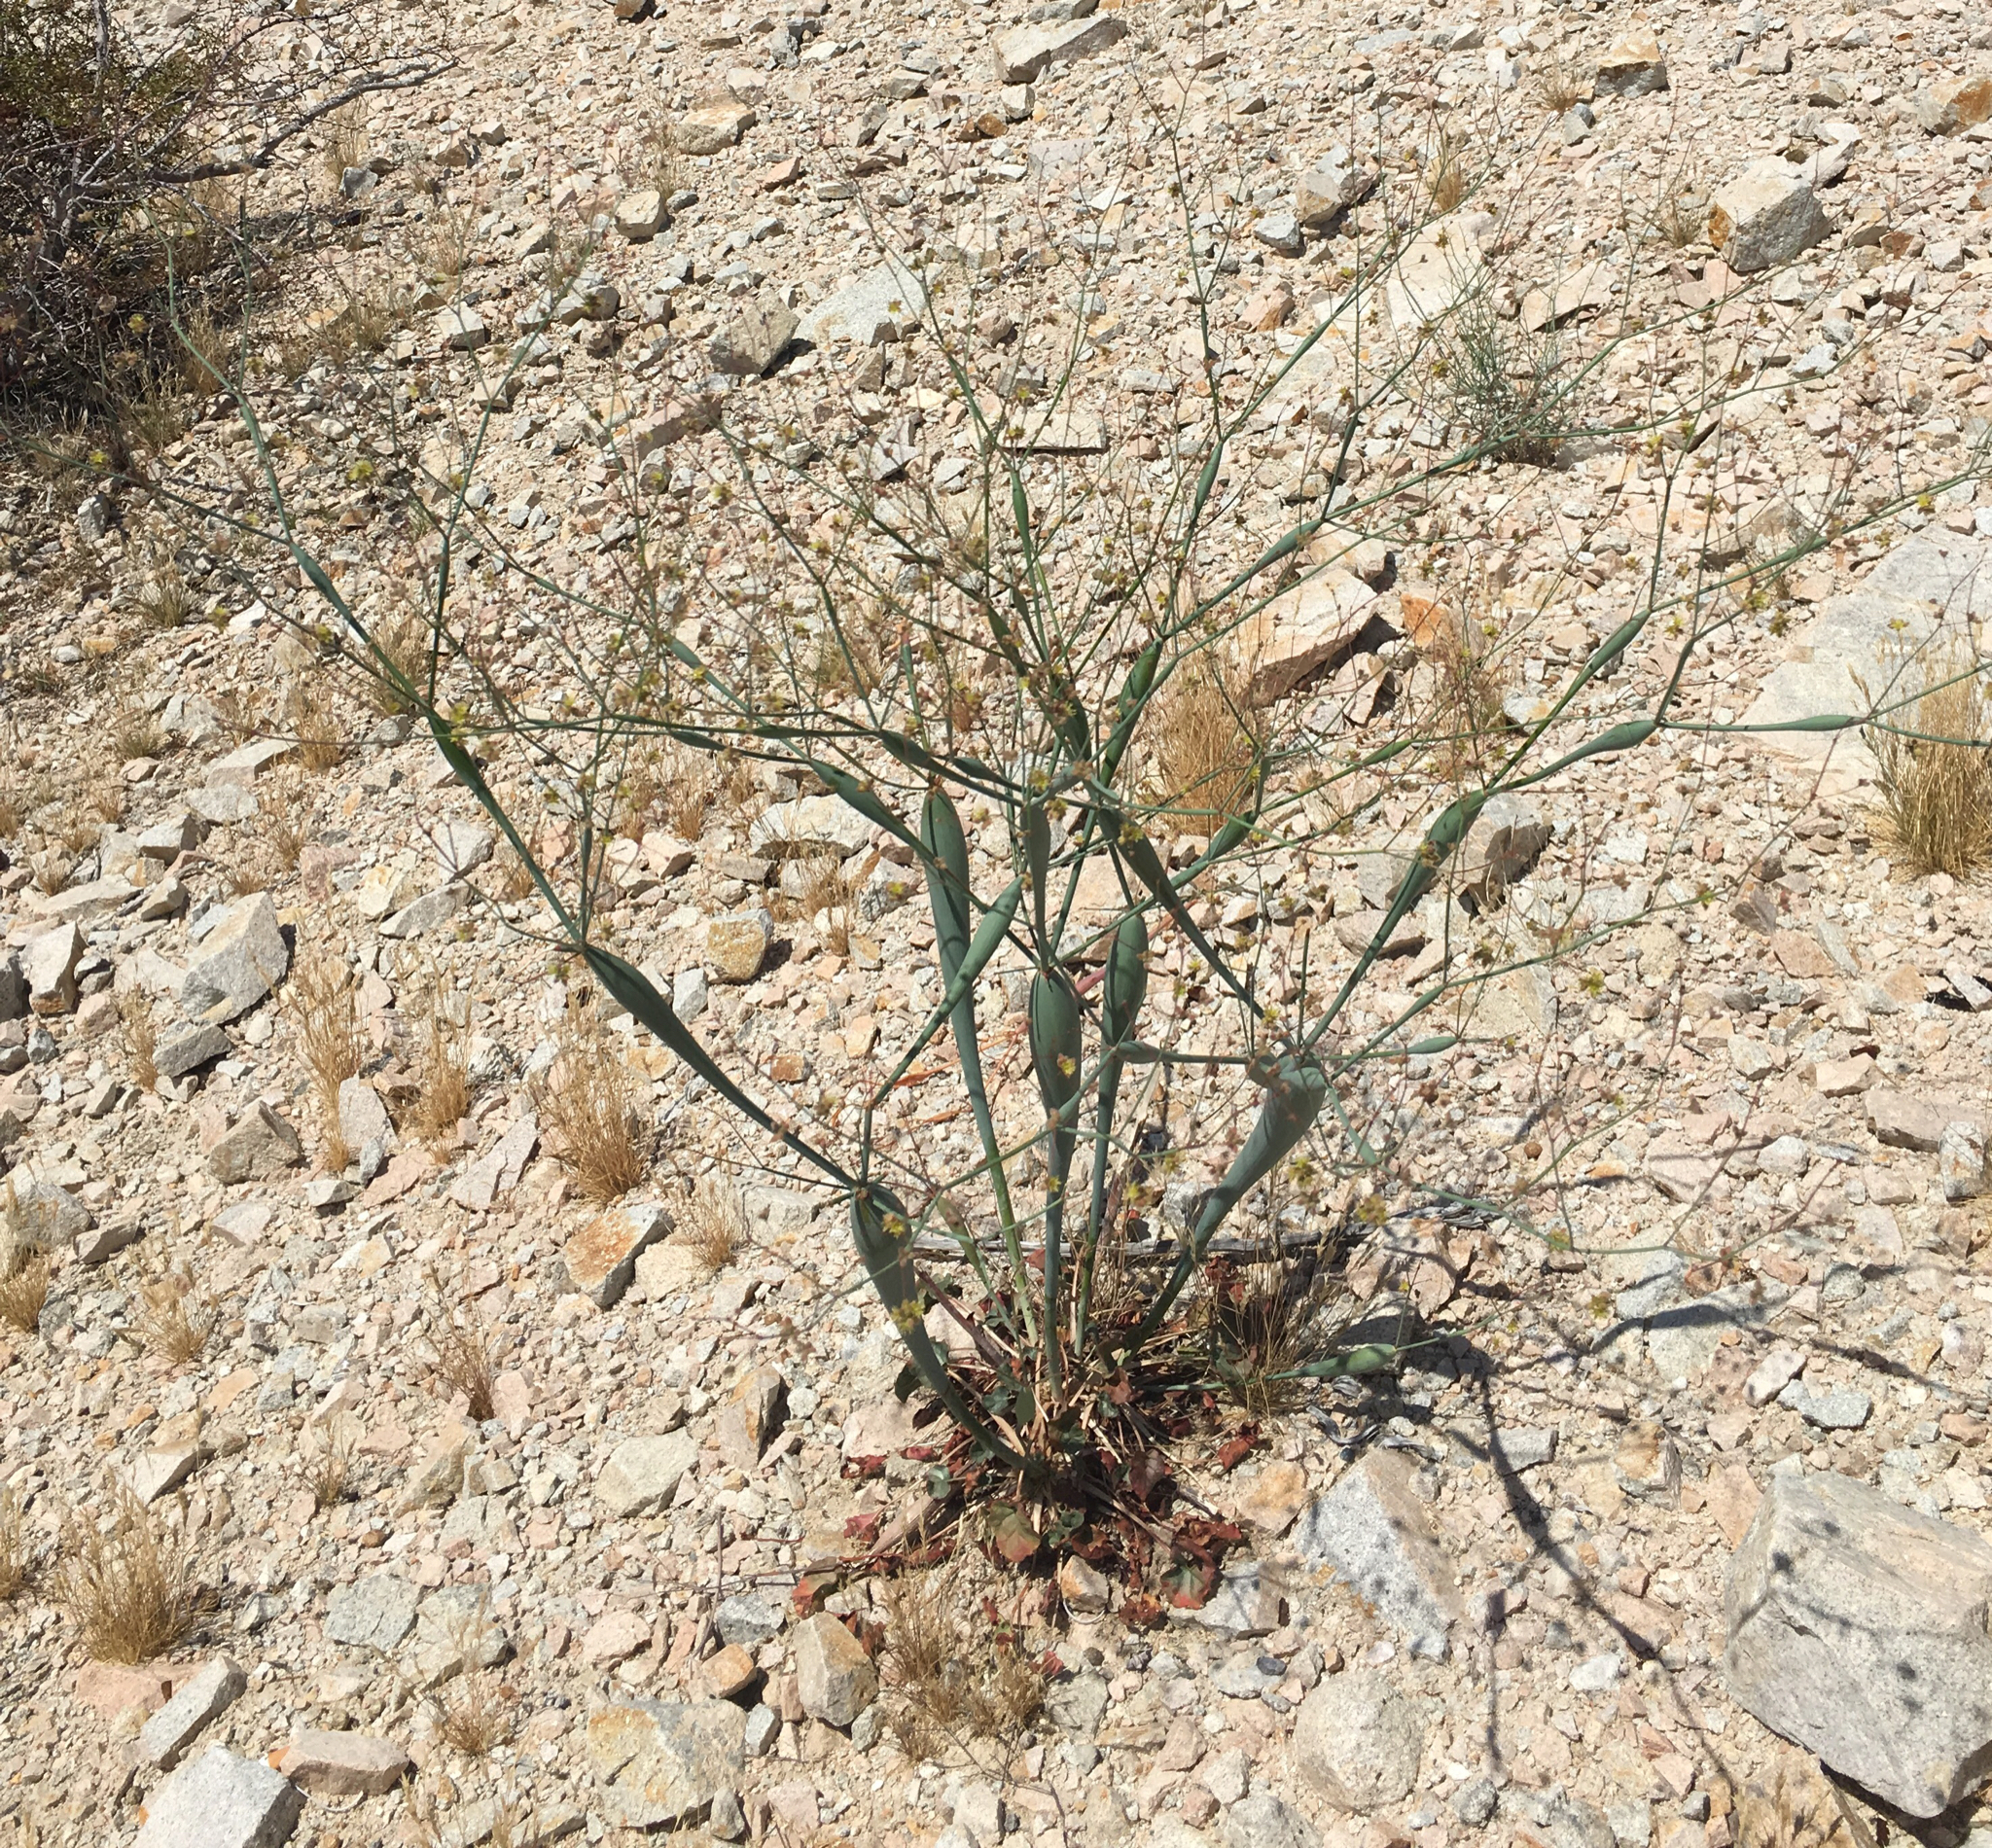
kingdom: Plantae
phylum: Tracheophyta
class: Magnoliopsida
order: Caryophyllales
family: Polygonaceae
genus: Eriogonum
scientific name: Eriogonum inflatum
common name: Desert trumpet
